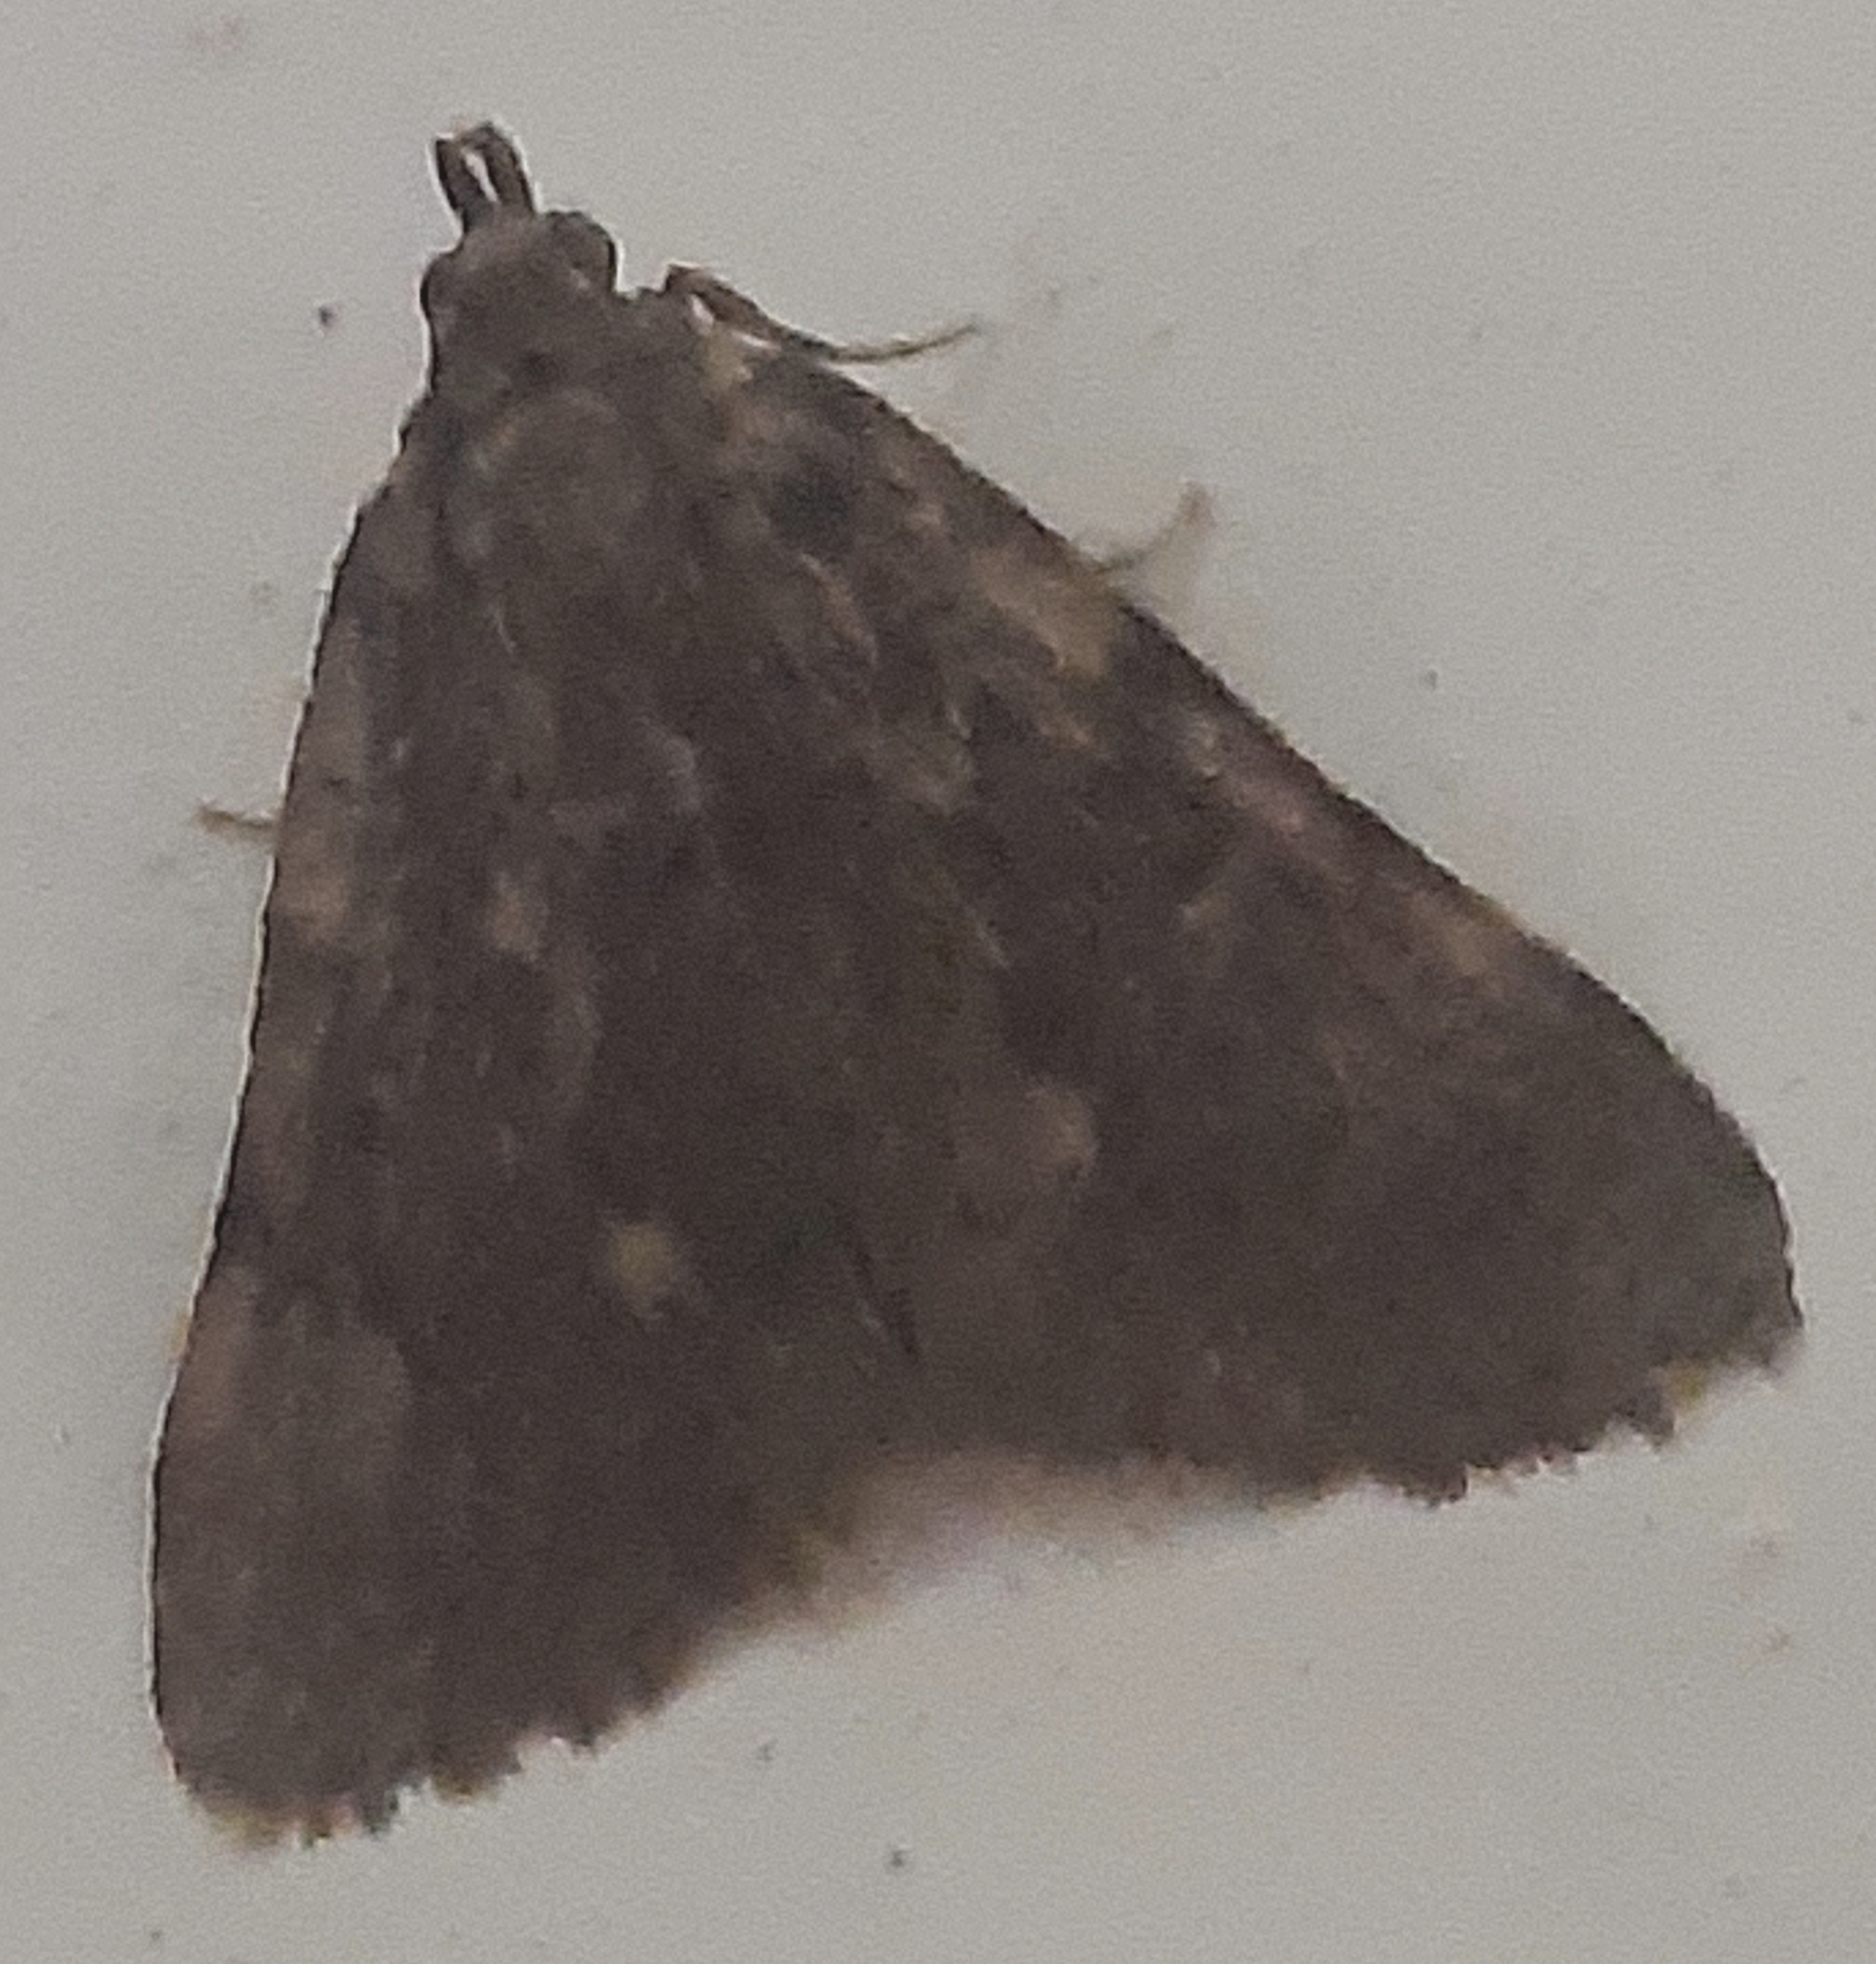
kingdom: Animalia
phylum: Arthropoda
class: Insecta
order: Lepidoptera
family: Pyralidae
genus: Aglossa
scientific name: Aglossa pinguinalis
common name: Large tabby
